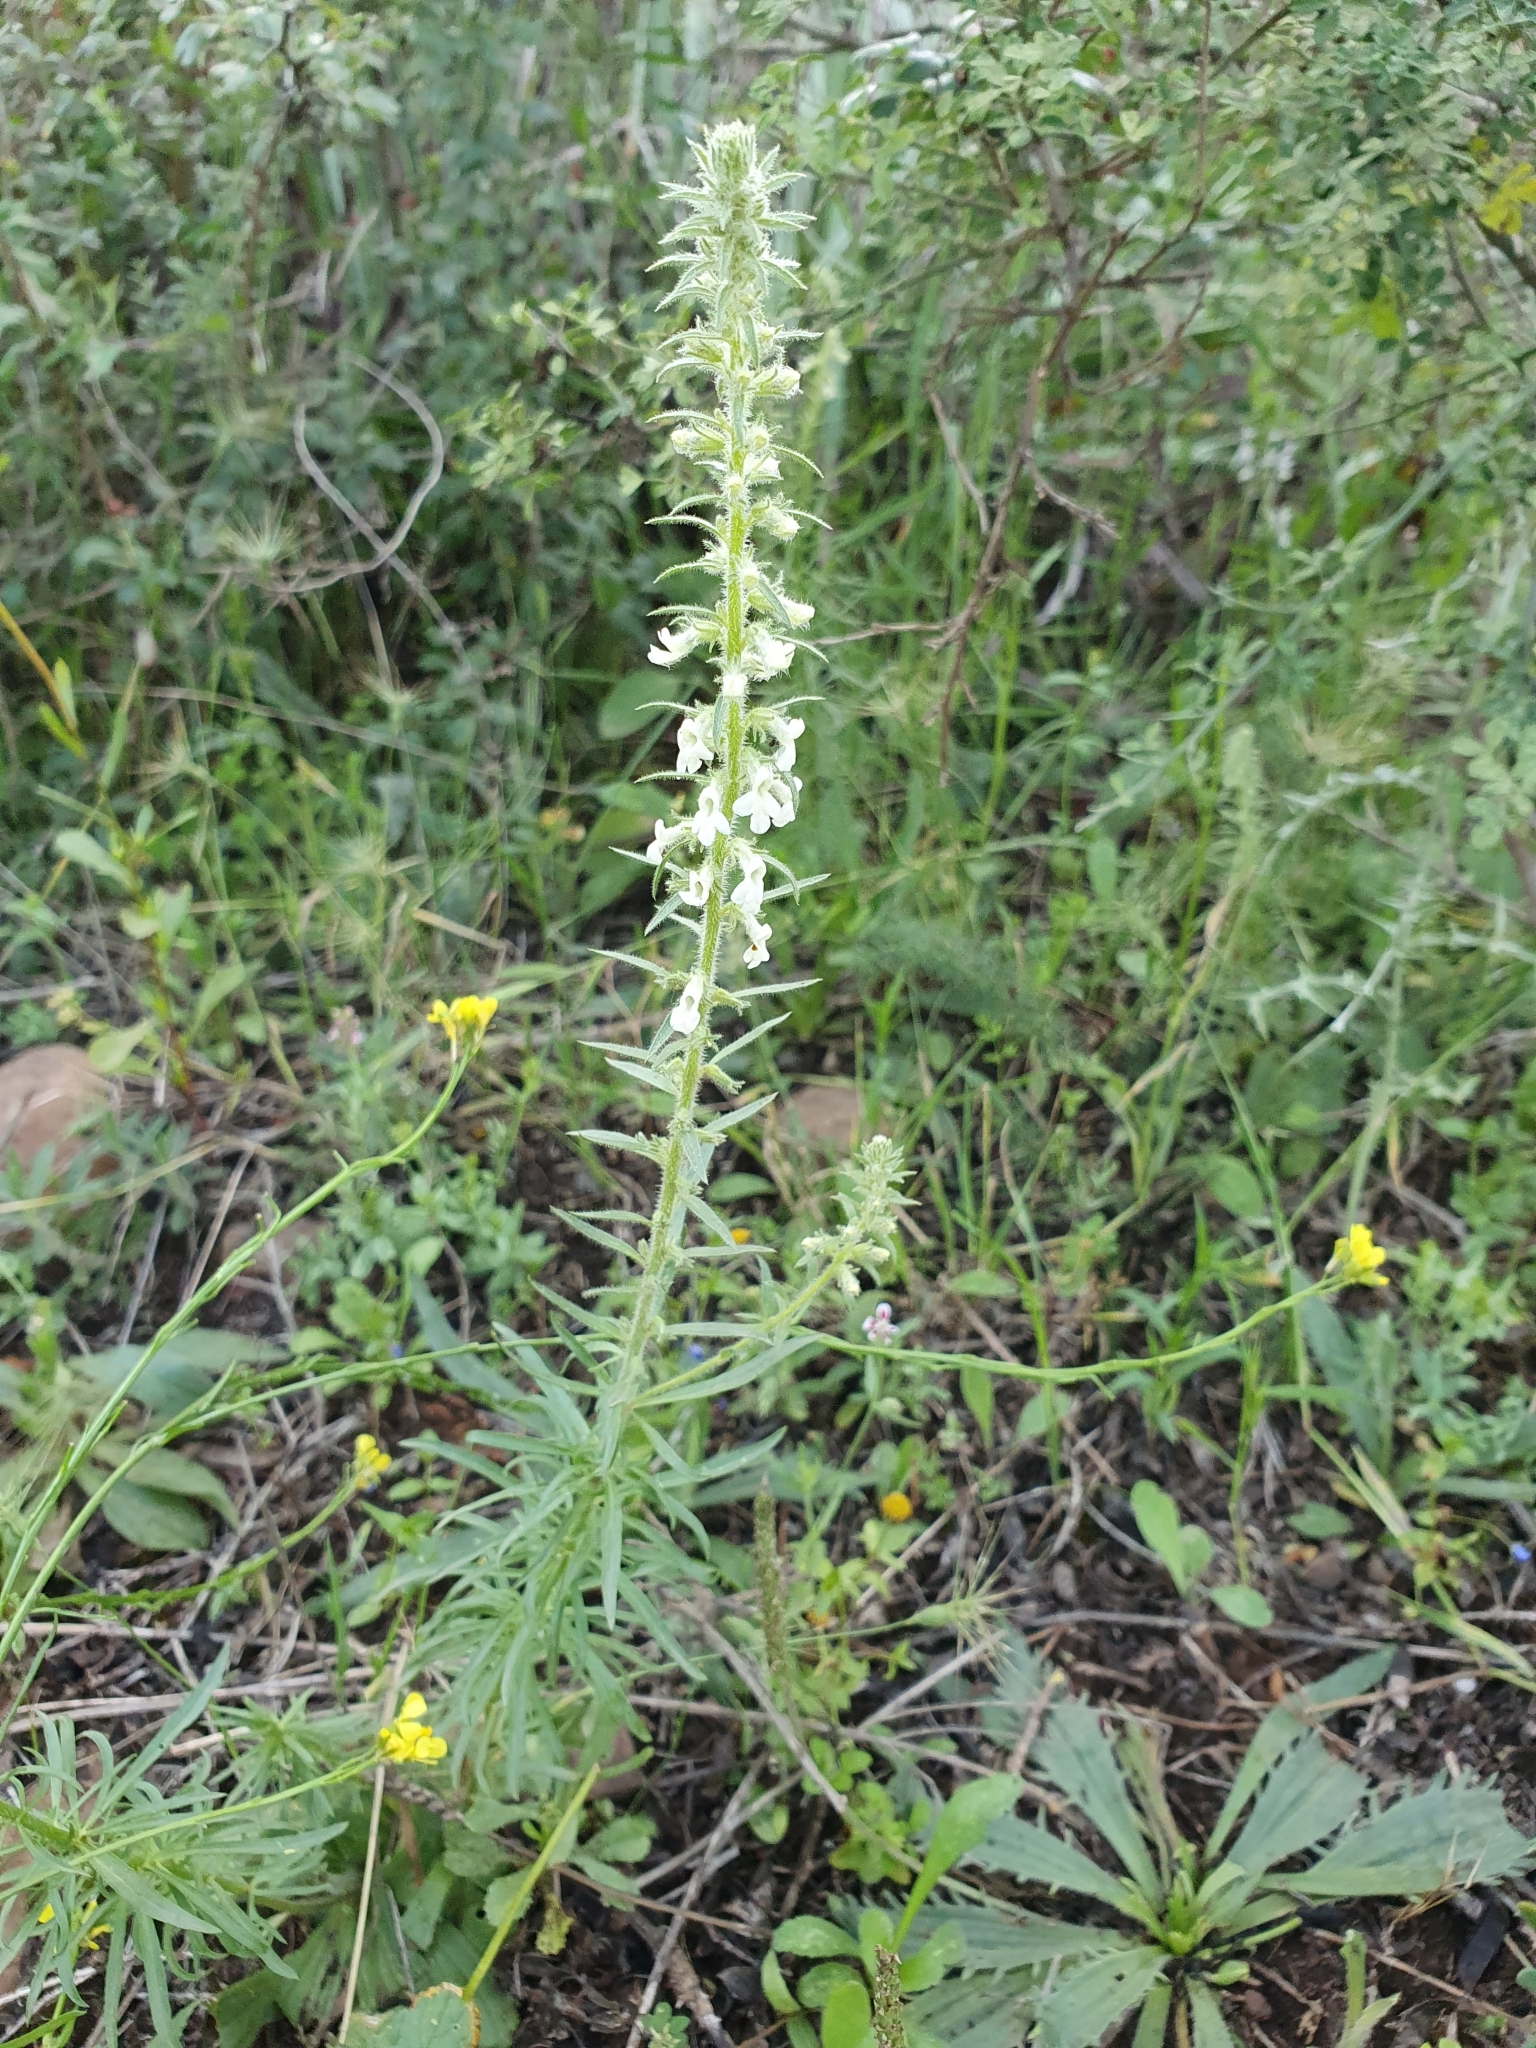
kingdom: Plantae
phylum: Tracheophyta
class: Magnoliopsida
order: Lamiales
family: Plantaginaceae
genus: Anarrhinum
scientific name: Anarrhinum pedatum
